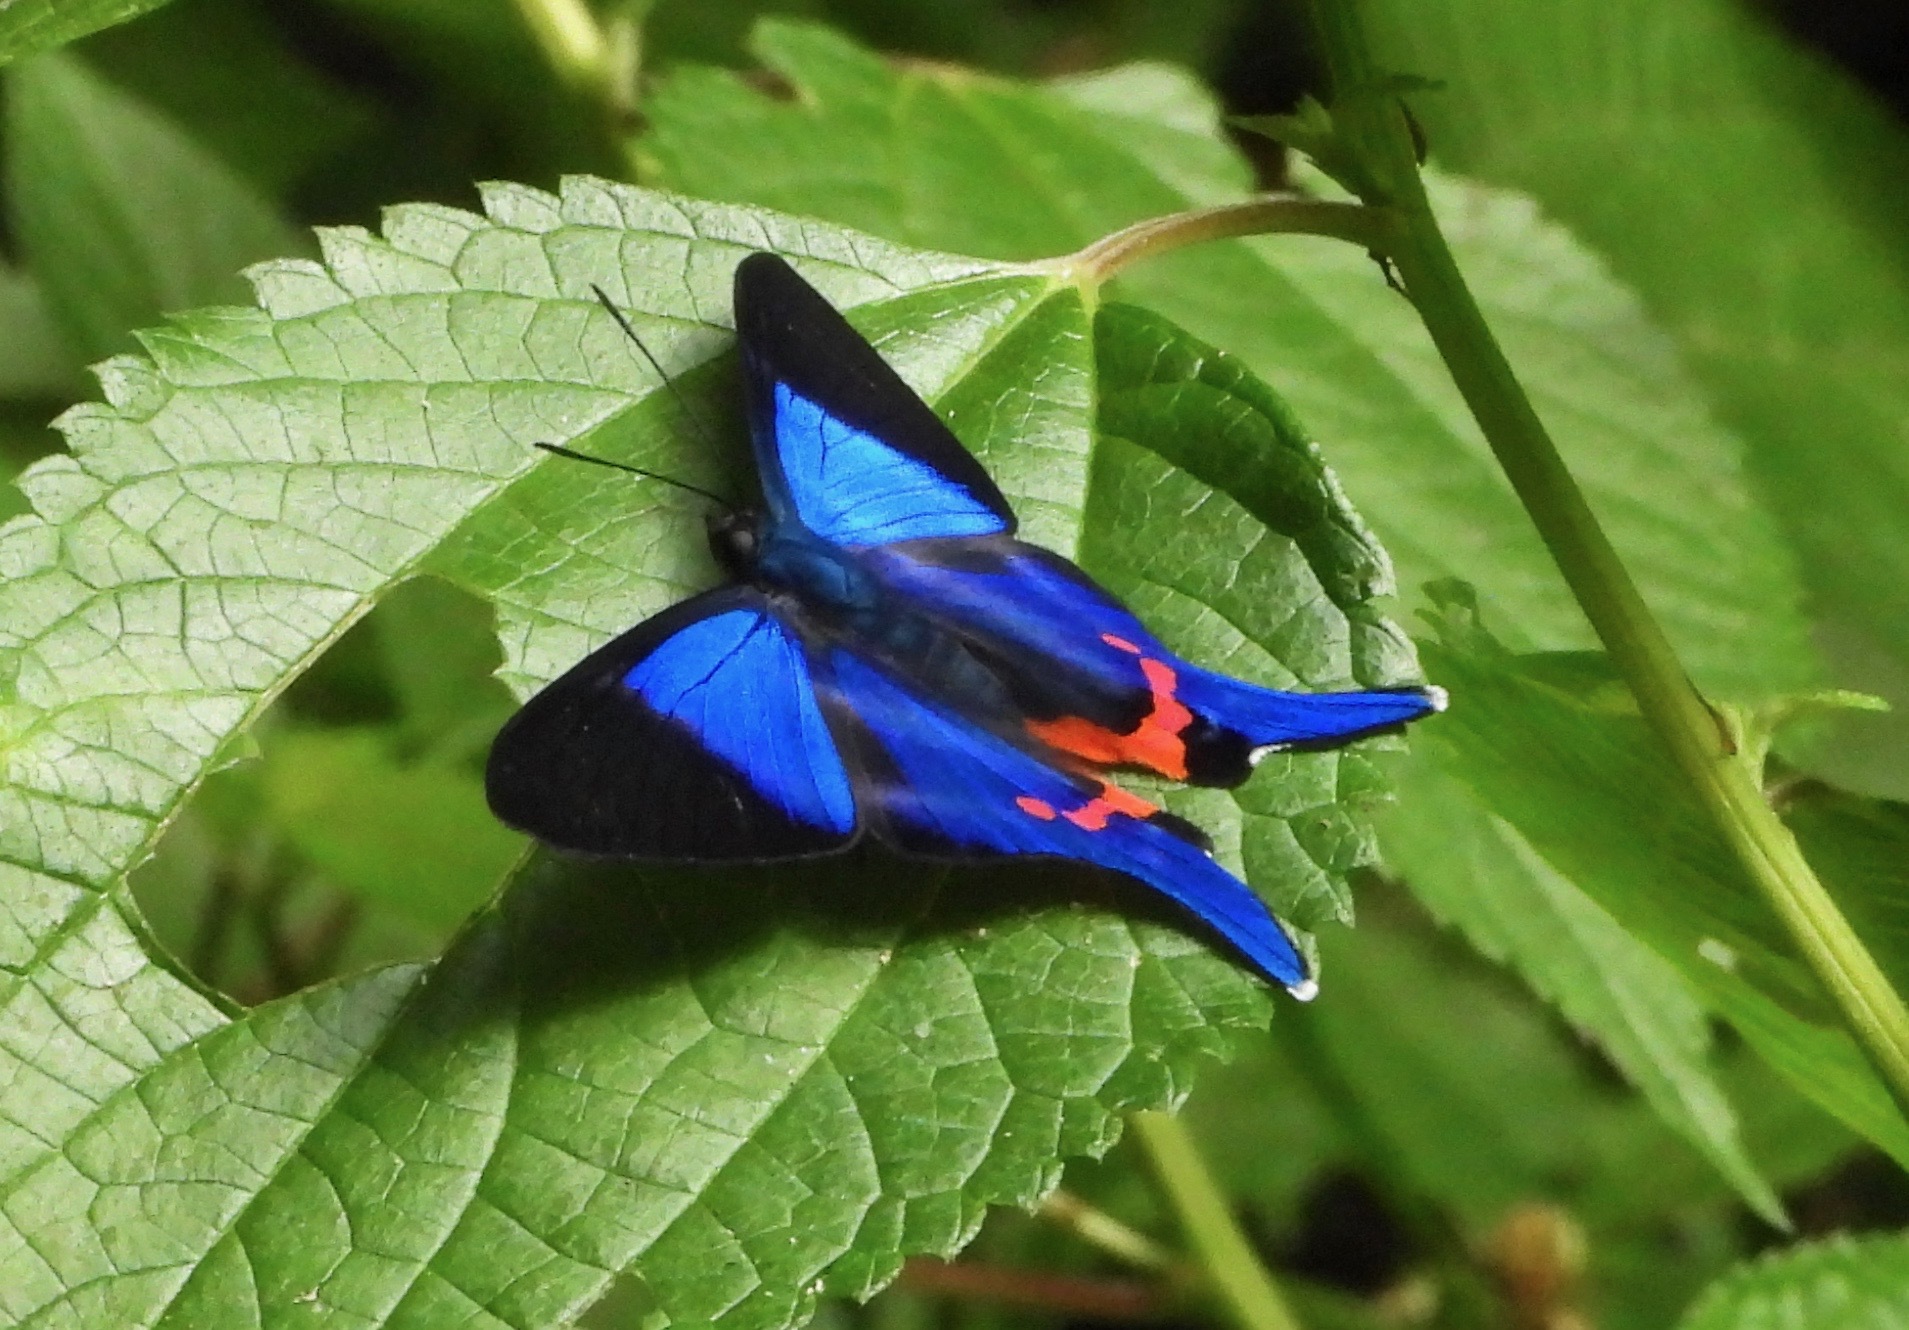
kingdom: Animalia
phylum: Arthropoda
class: Insecta
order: Lepidoptera
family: Riodinidae
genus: Rhetus
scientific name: Rhetus dysonii
